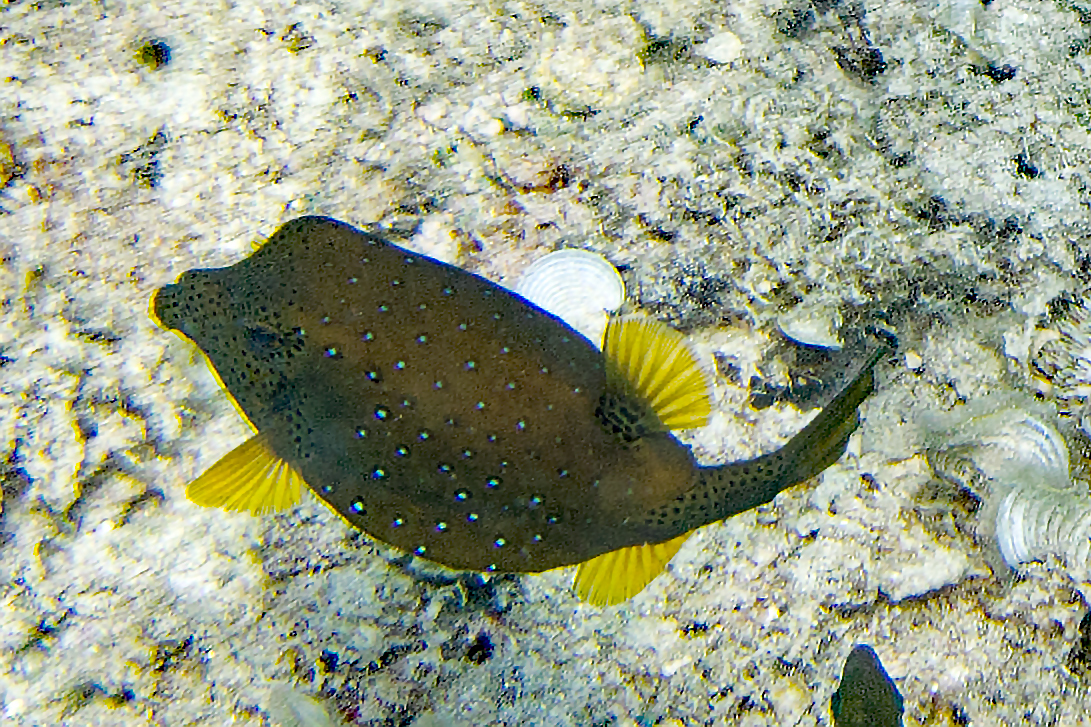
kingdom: Animalia
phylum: Chordata
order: Tetraodontiformes
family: Ostraciidae
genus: Ostracion
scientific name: Ostracion cubicus
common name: Cube trunkfish
